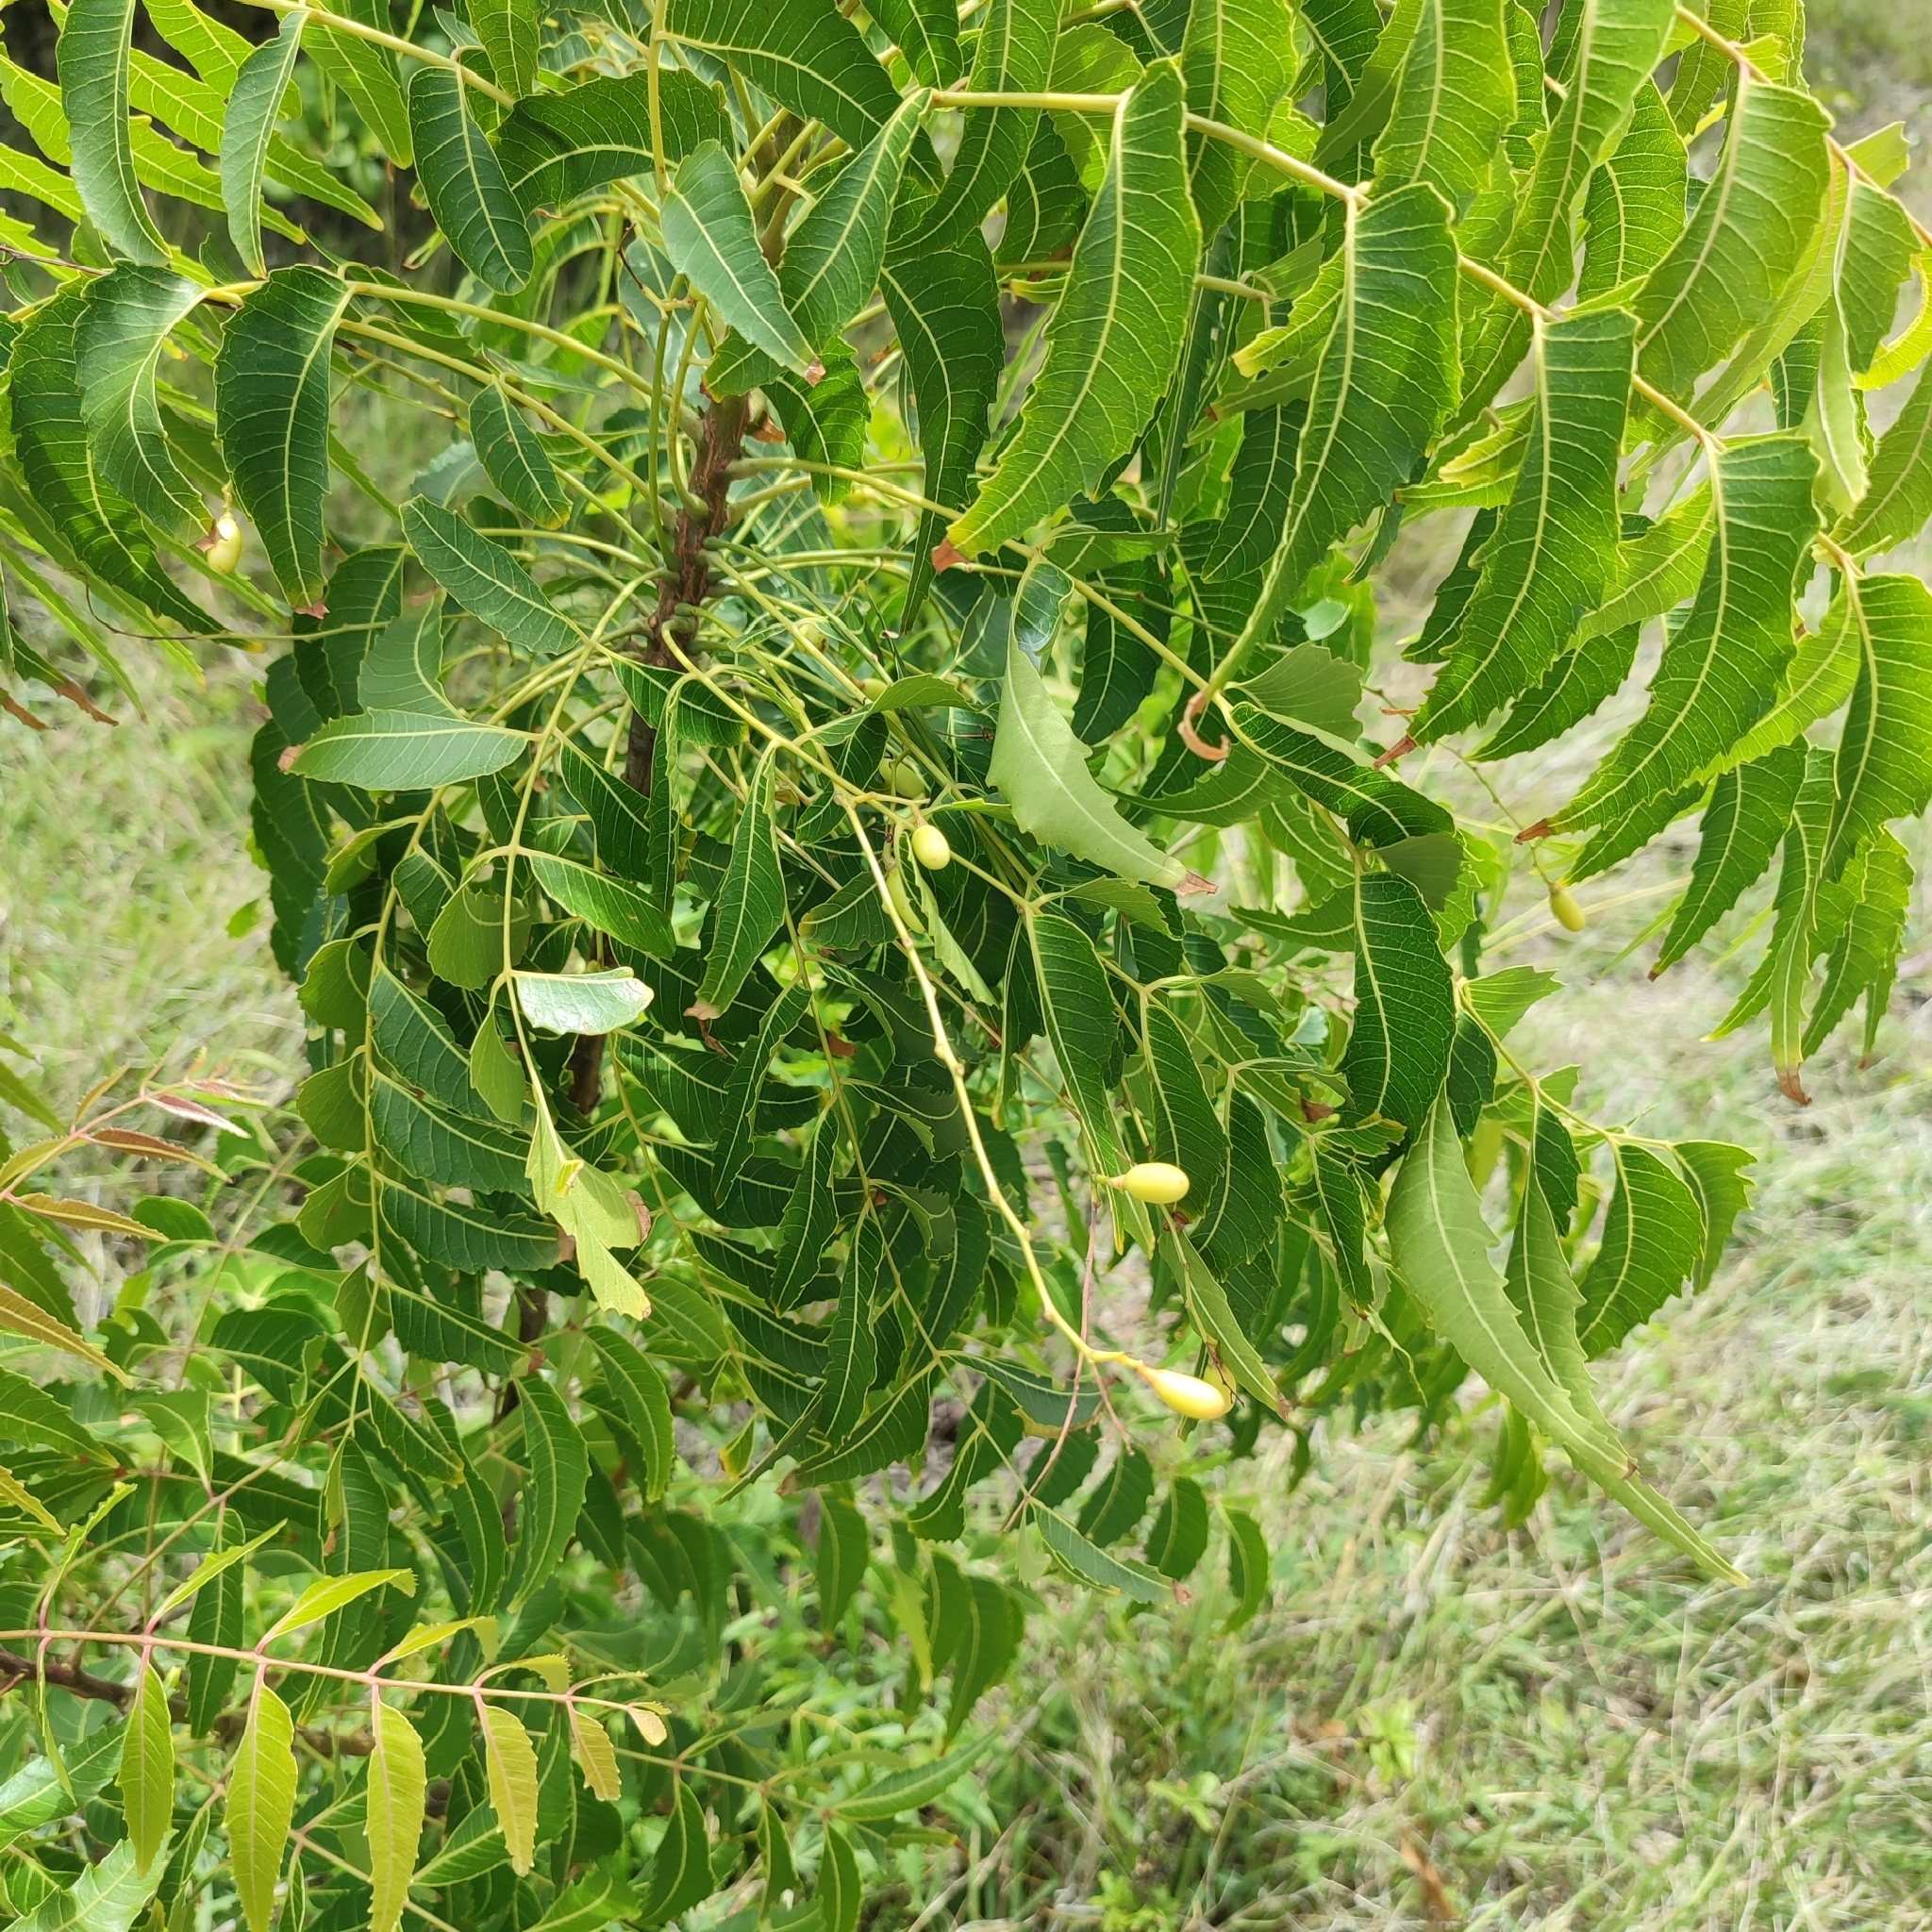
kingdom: Plantae
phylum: Tracheophyta
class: Magnoliopsida
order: Sapindales
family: Meliaceae
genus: Azadirachta
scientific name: Azadirachta indica
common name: Neem
